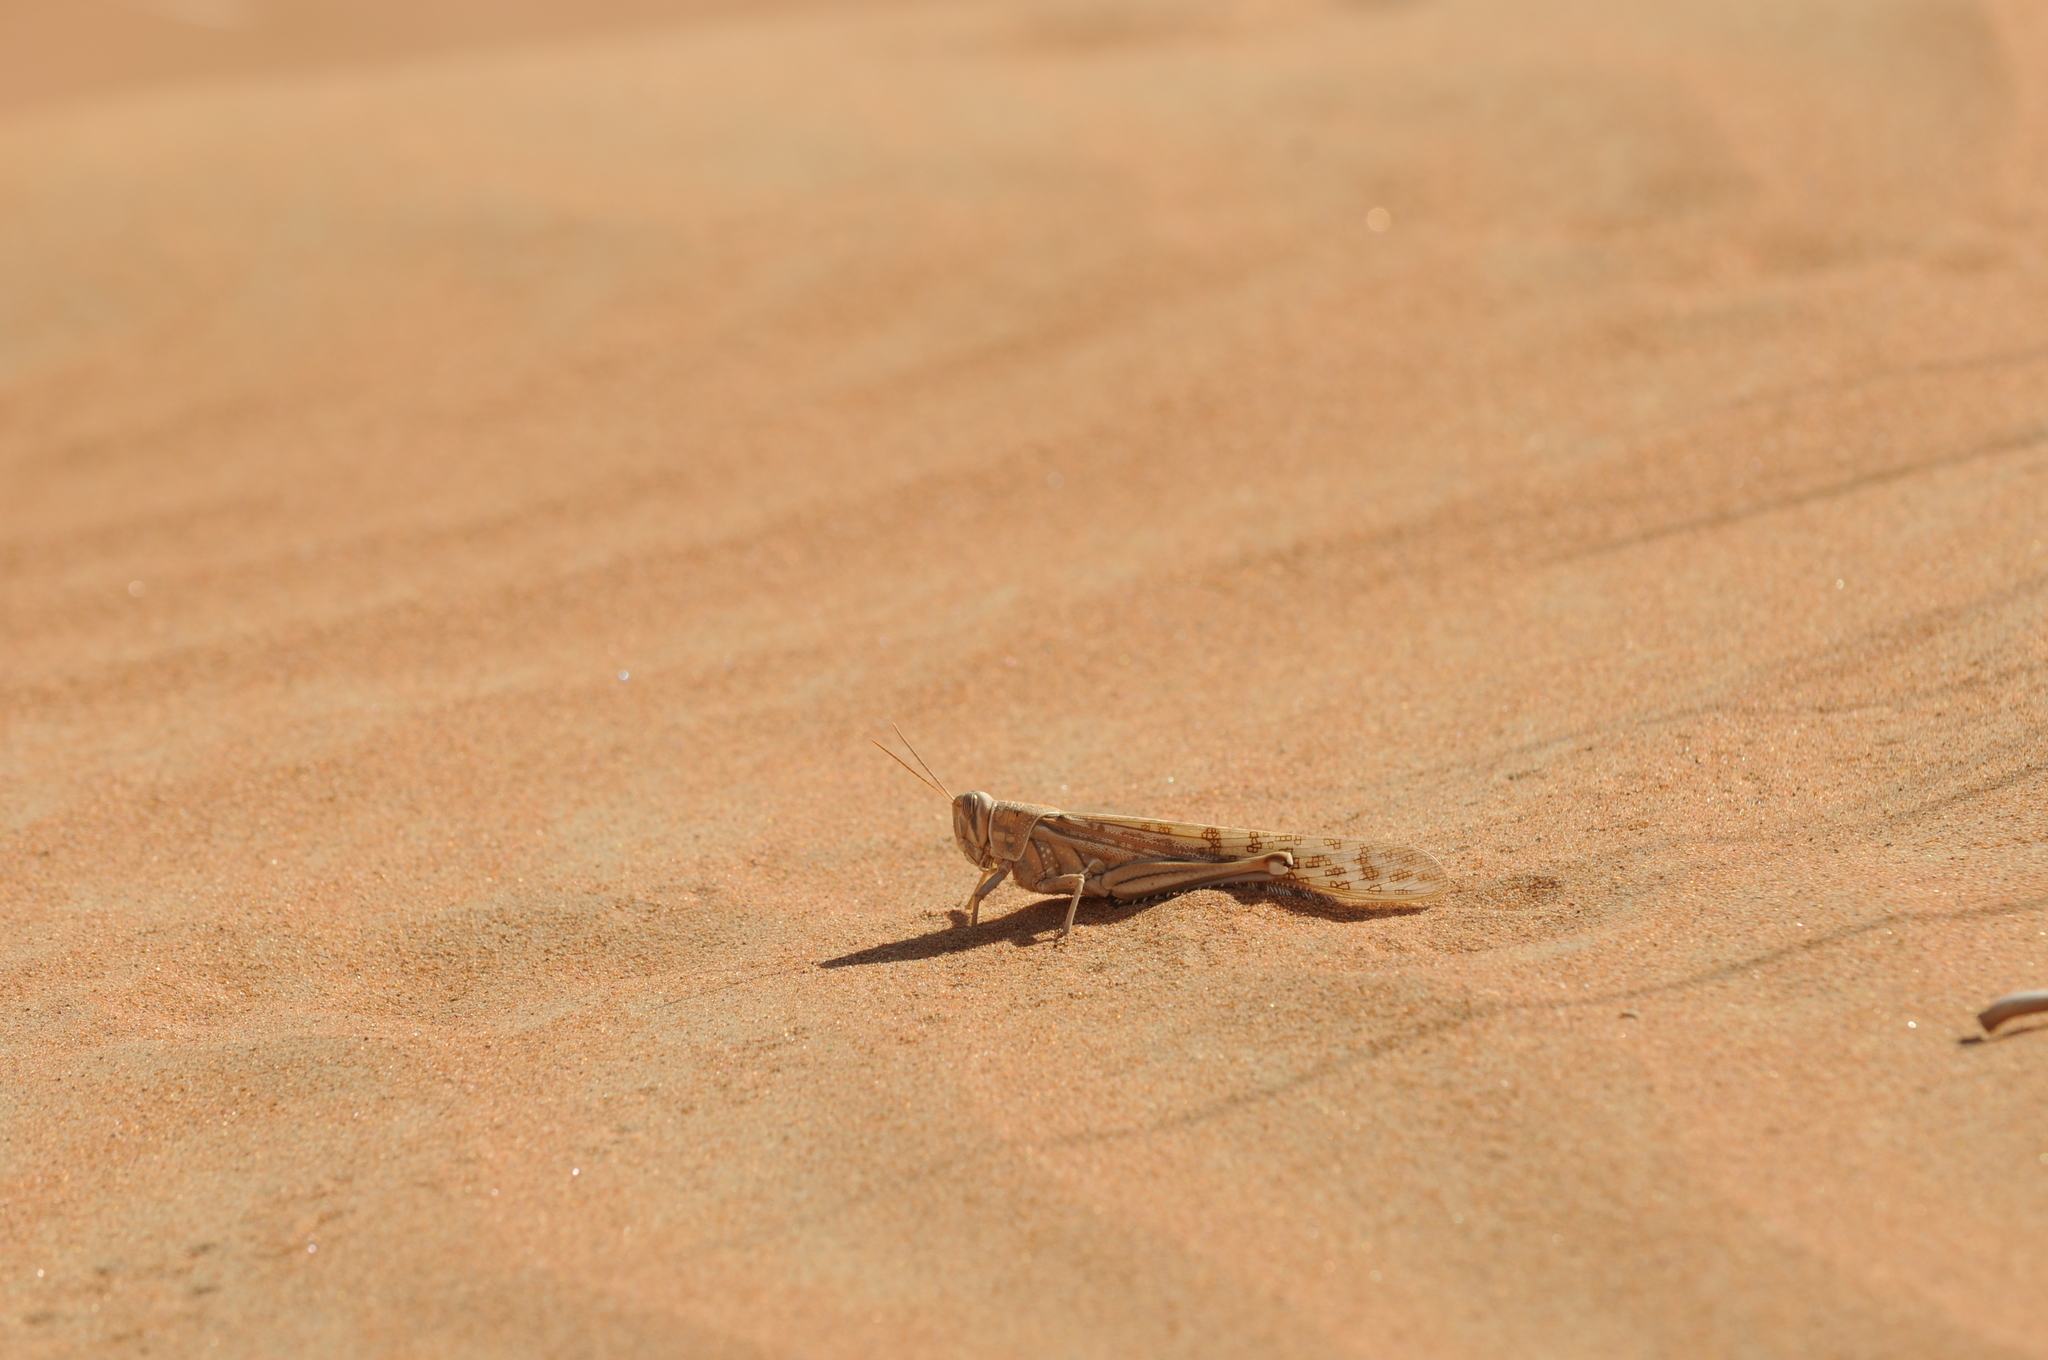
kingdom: Animalia
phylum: Arthropoda
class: Insecta
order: Orthoptera
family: Acrididae
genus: Schistocerca
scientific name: Schistocerca gregaria
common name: Desert locust
